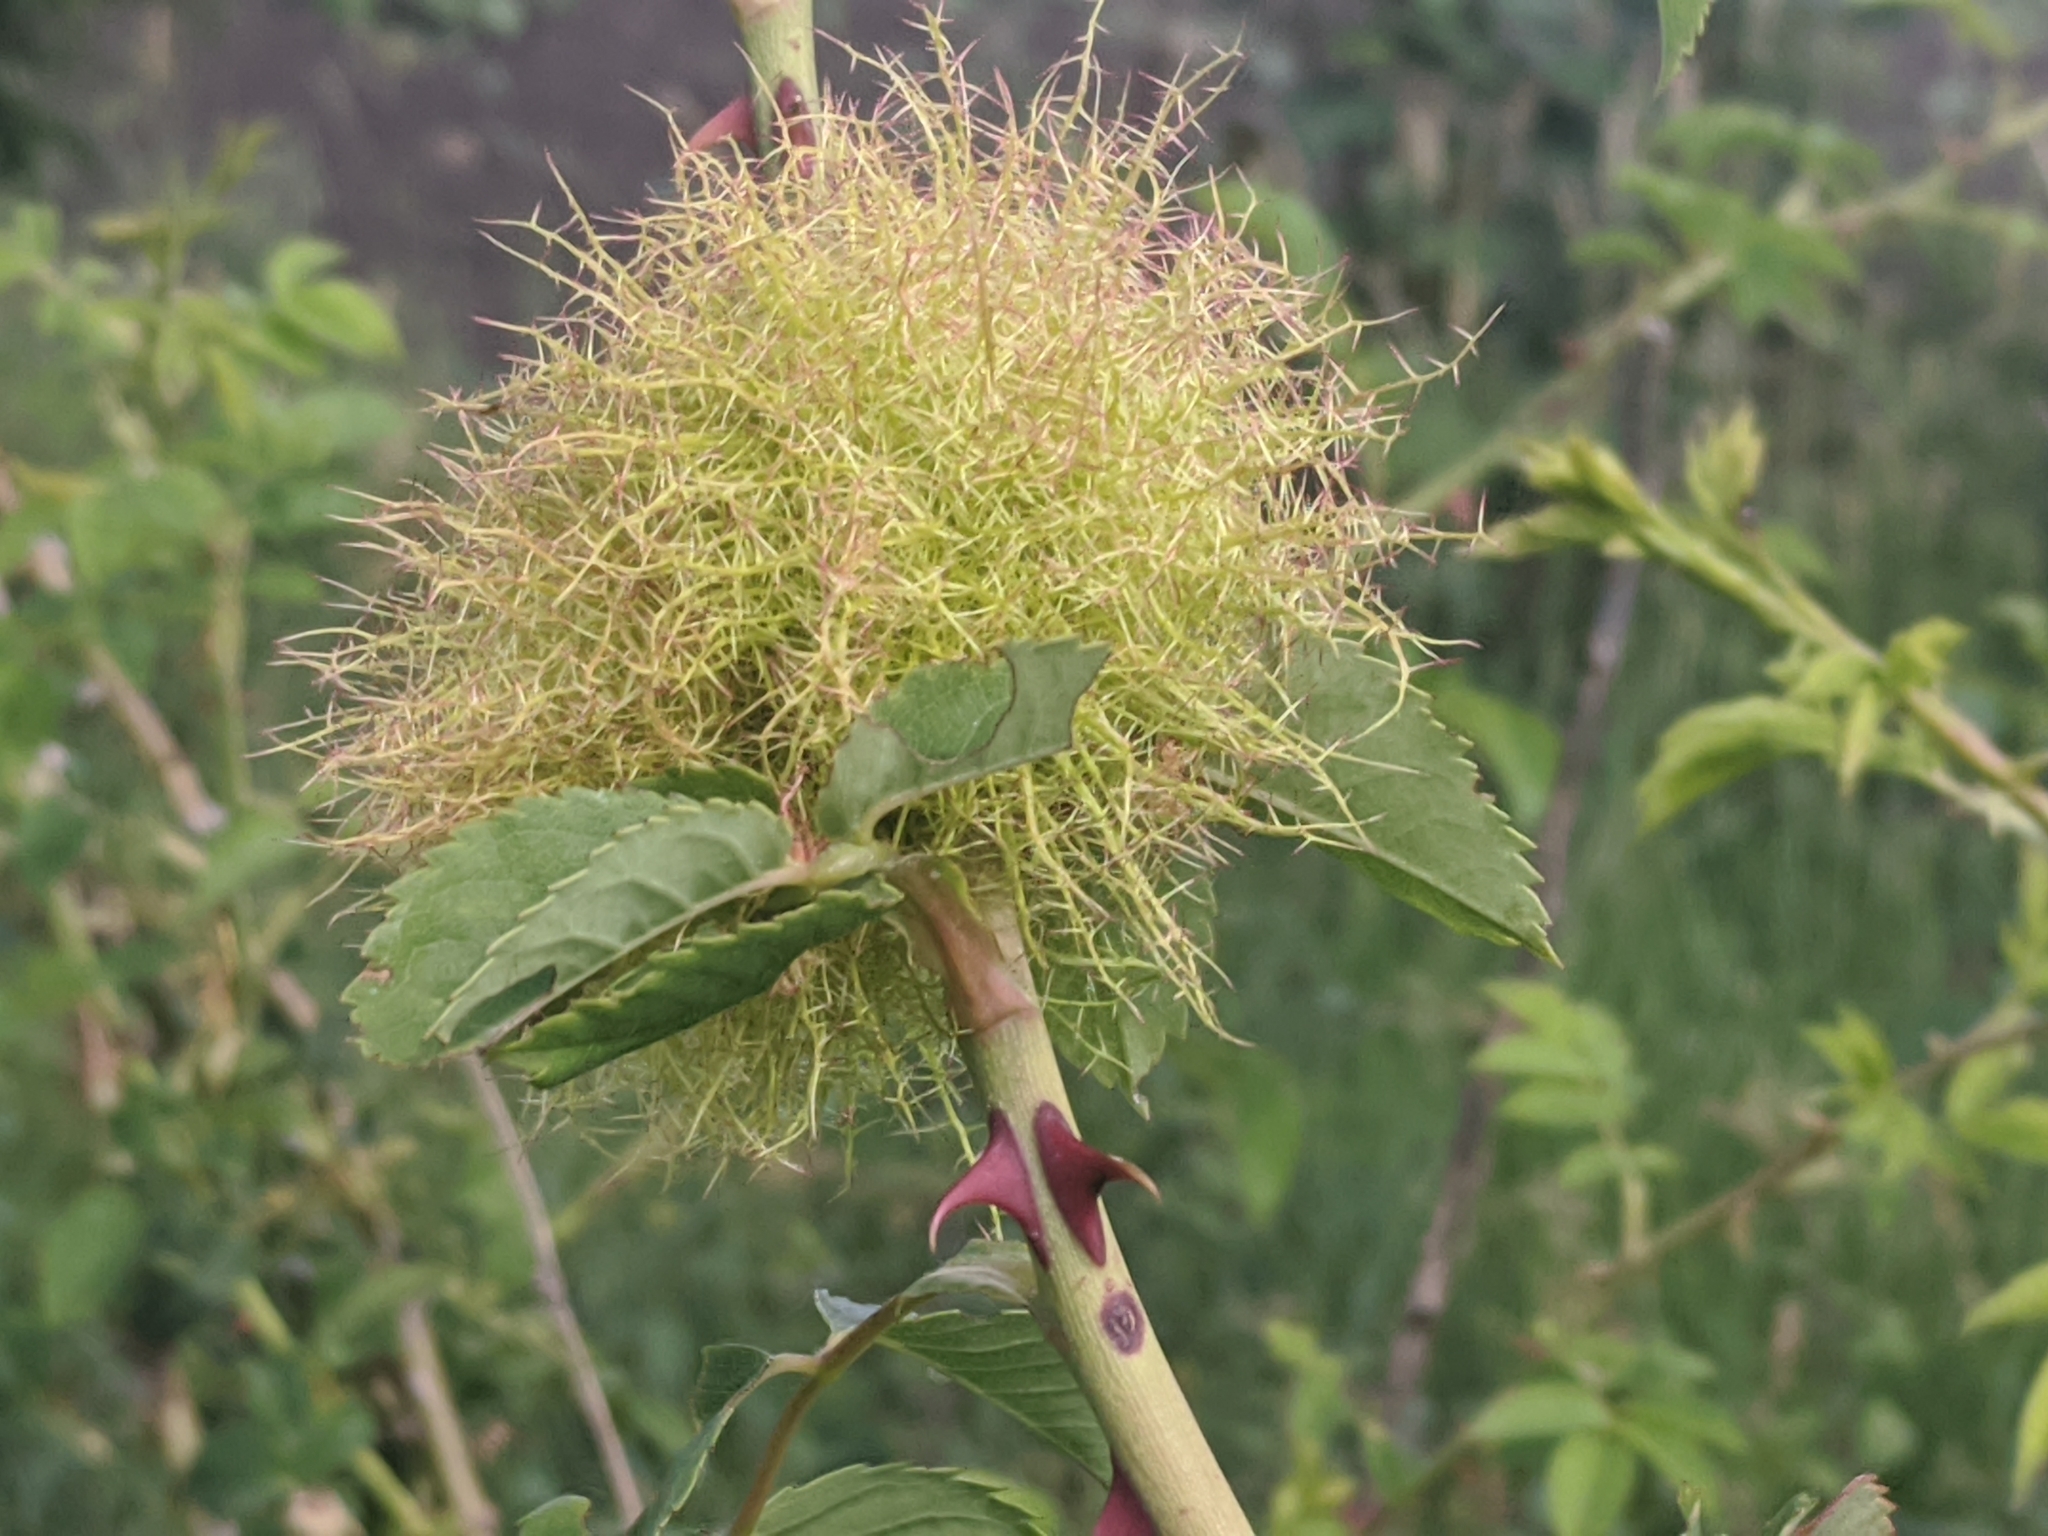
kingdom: Animalia
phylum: Arthropoda
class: Insecta
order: Hymenoptera
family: Cynipidae
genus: Diplolepis
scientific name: Diplolepis rosae
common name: Bedeguar gall
